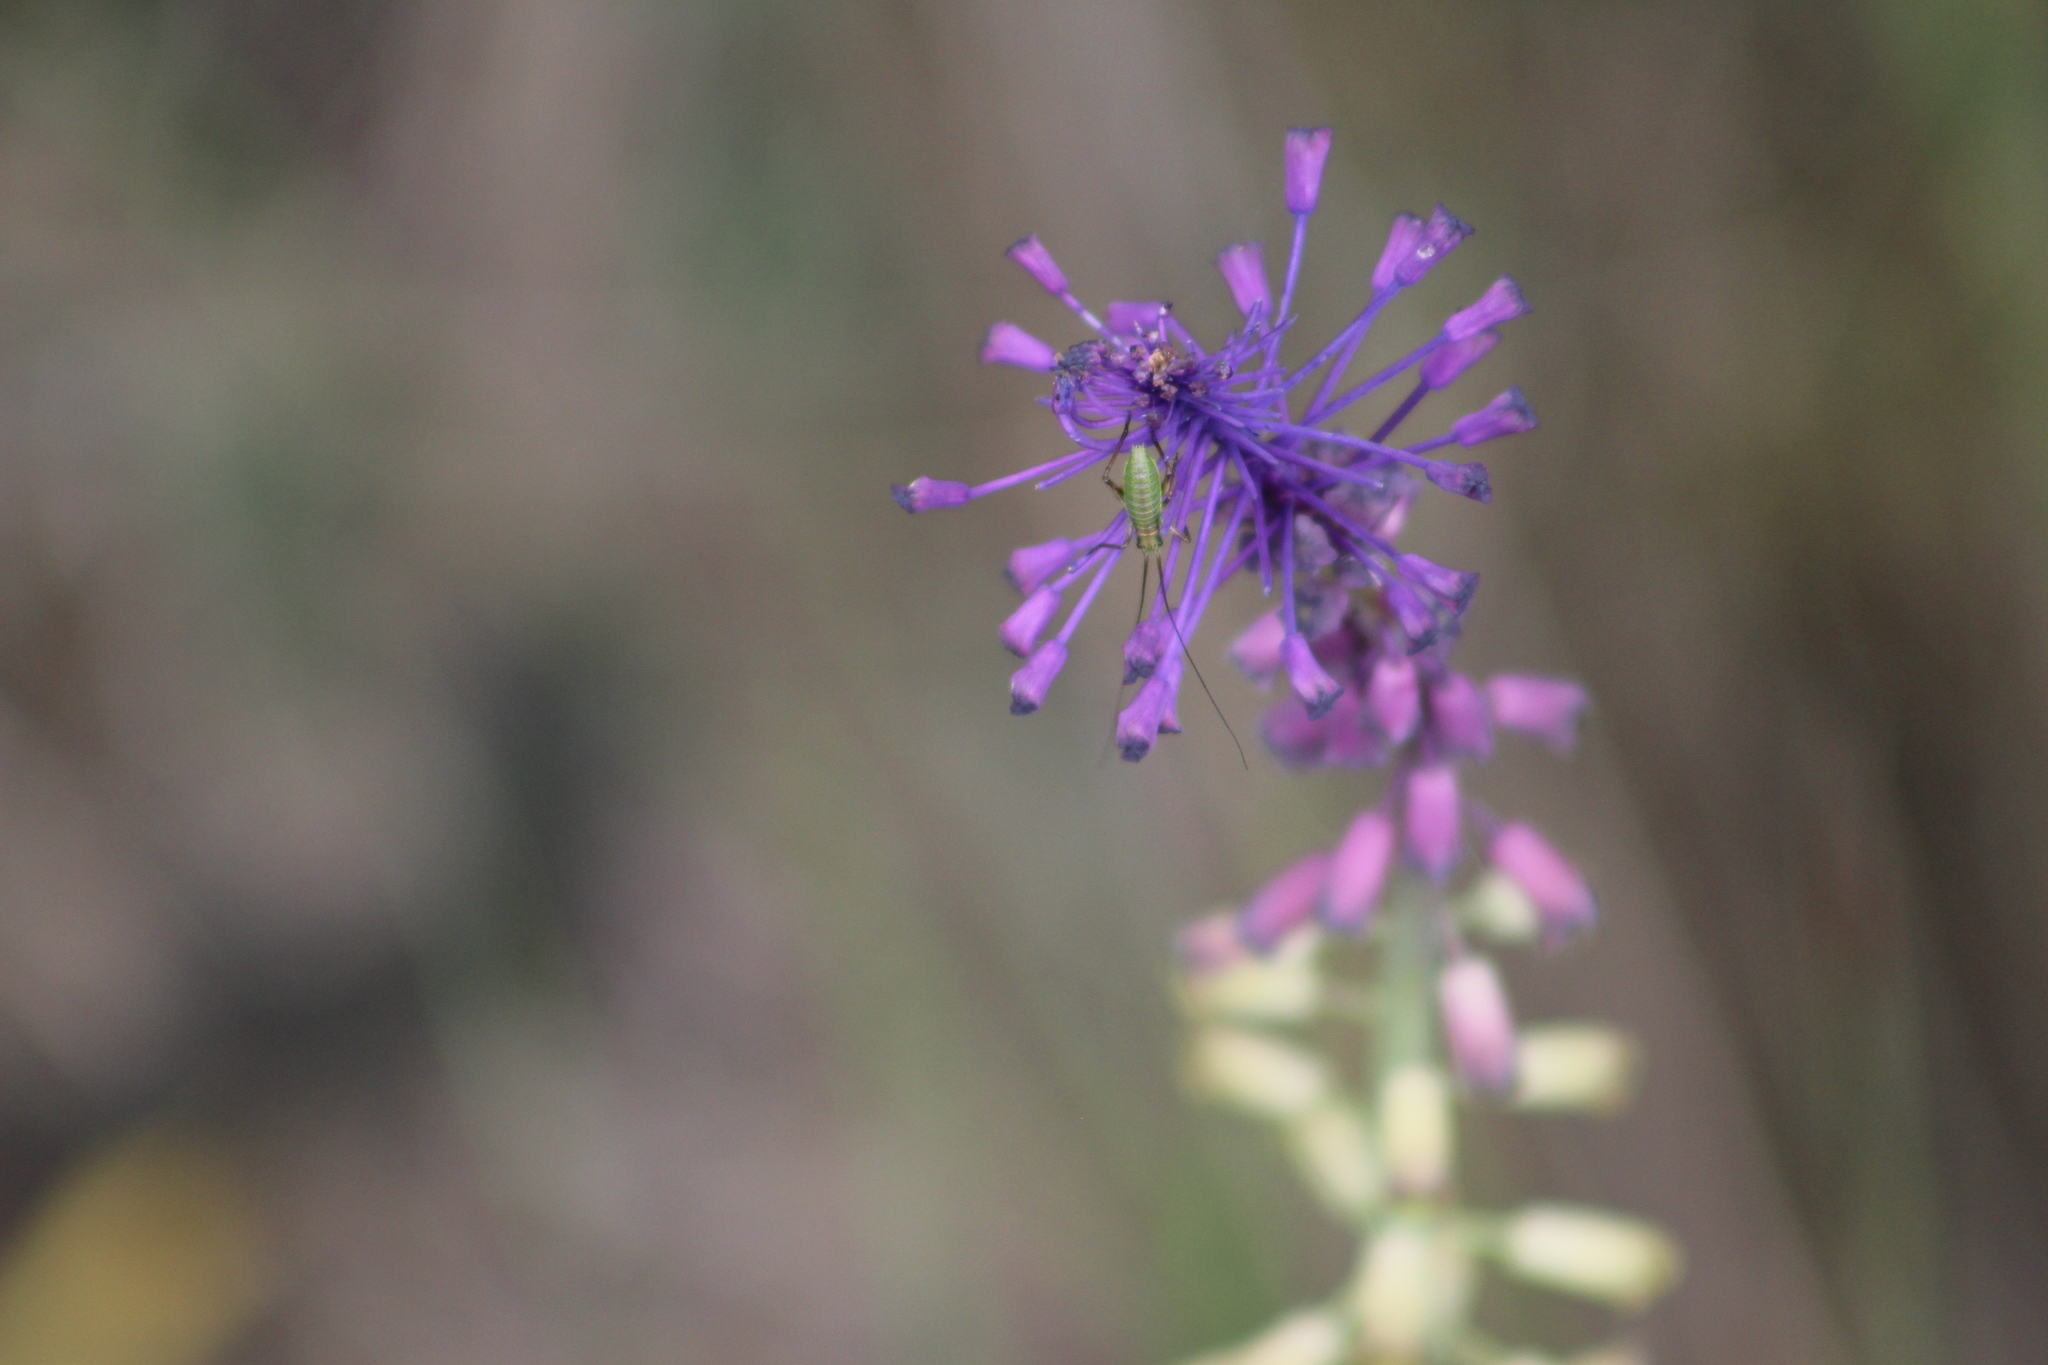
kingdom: Plantae
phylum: Tracheophyta
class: Liliopsida
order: Asparagales
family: Asparagaceae
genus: Muscari
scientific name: Muscari comosum
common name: Tassel hyacinth
